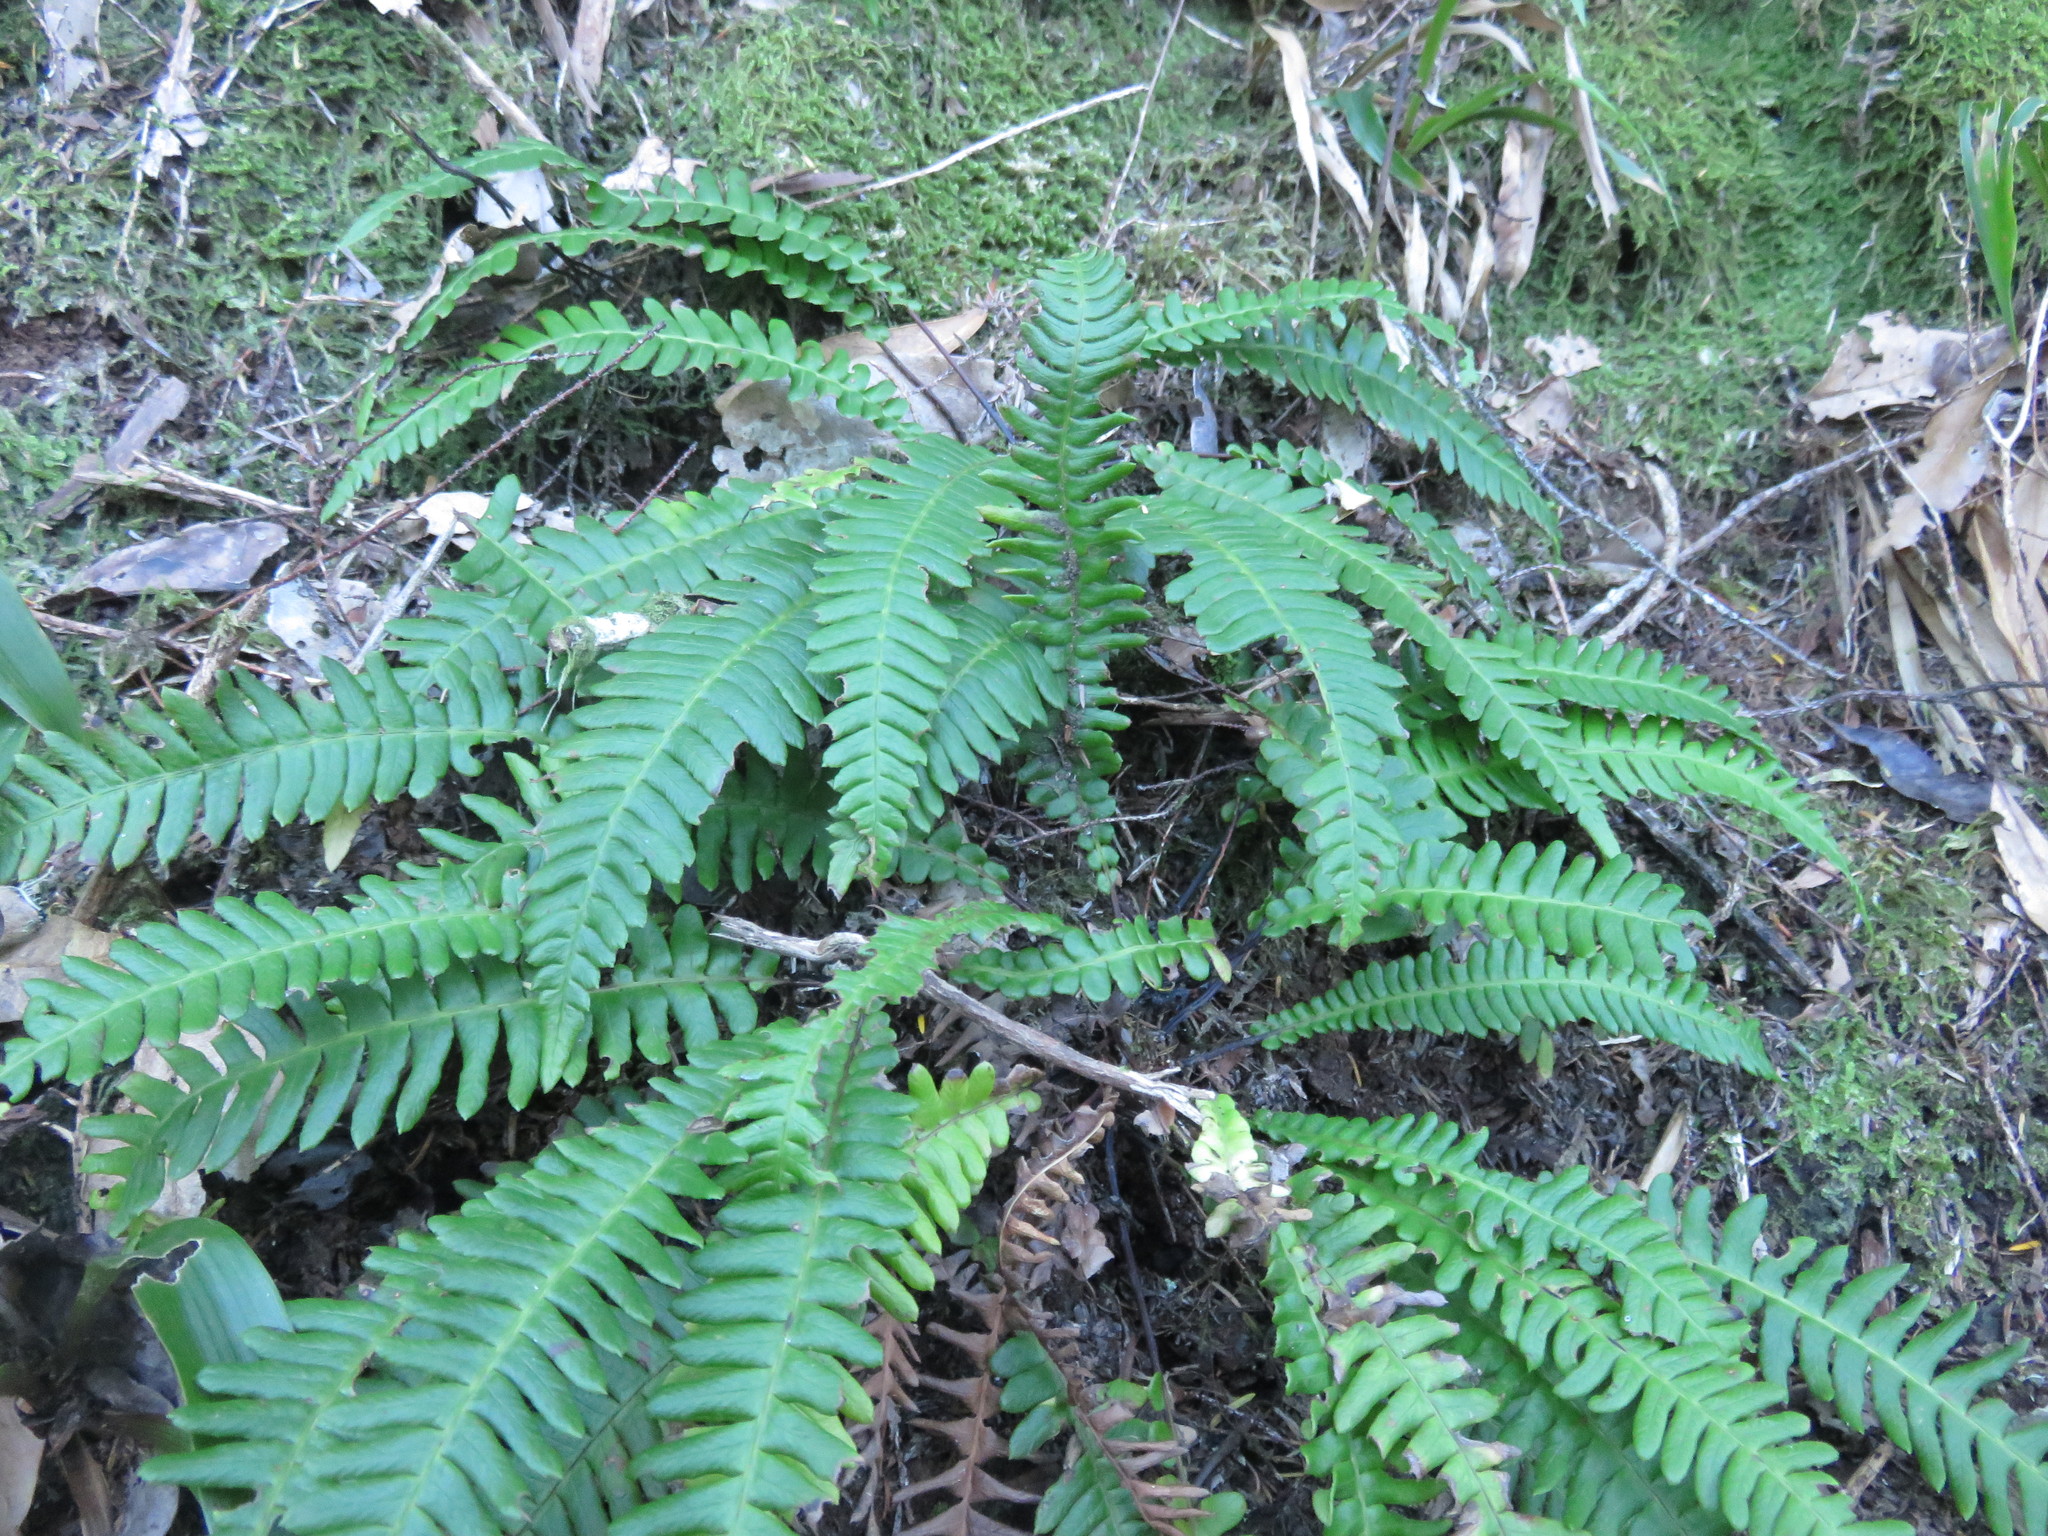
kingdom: Plantae
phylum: Tracheophyta
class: Polypodiopsida
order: Polypodiales
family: Blechnaceae
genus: Struthiopteris
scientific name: Struthiopteris spicant
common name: Deer fern
